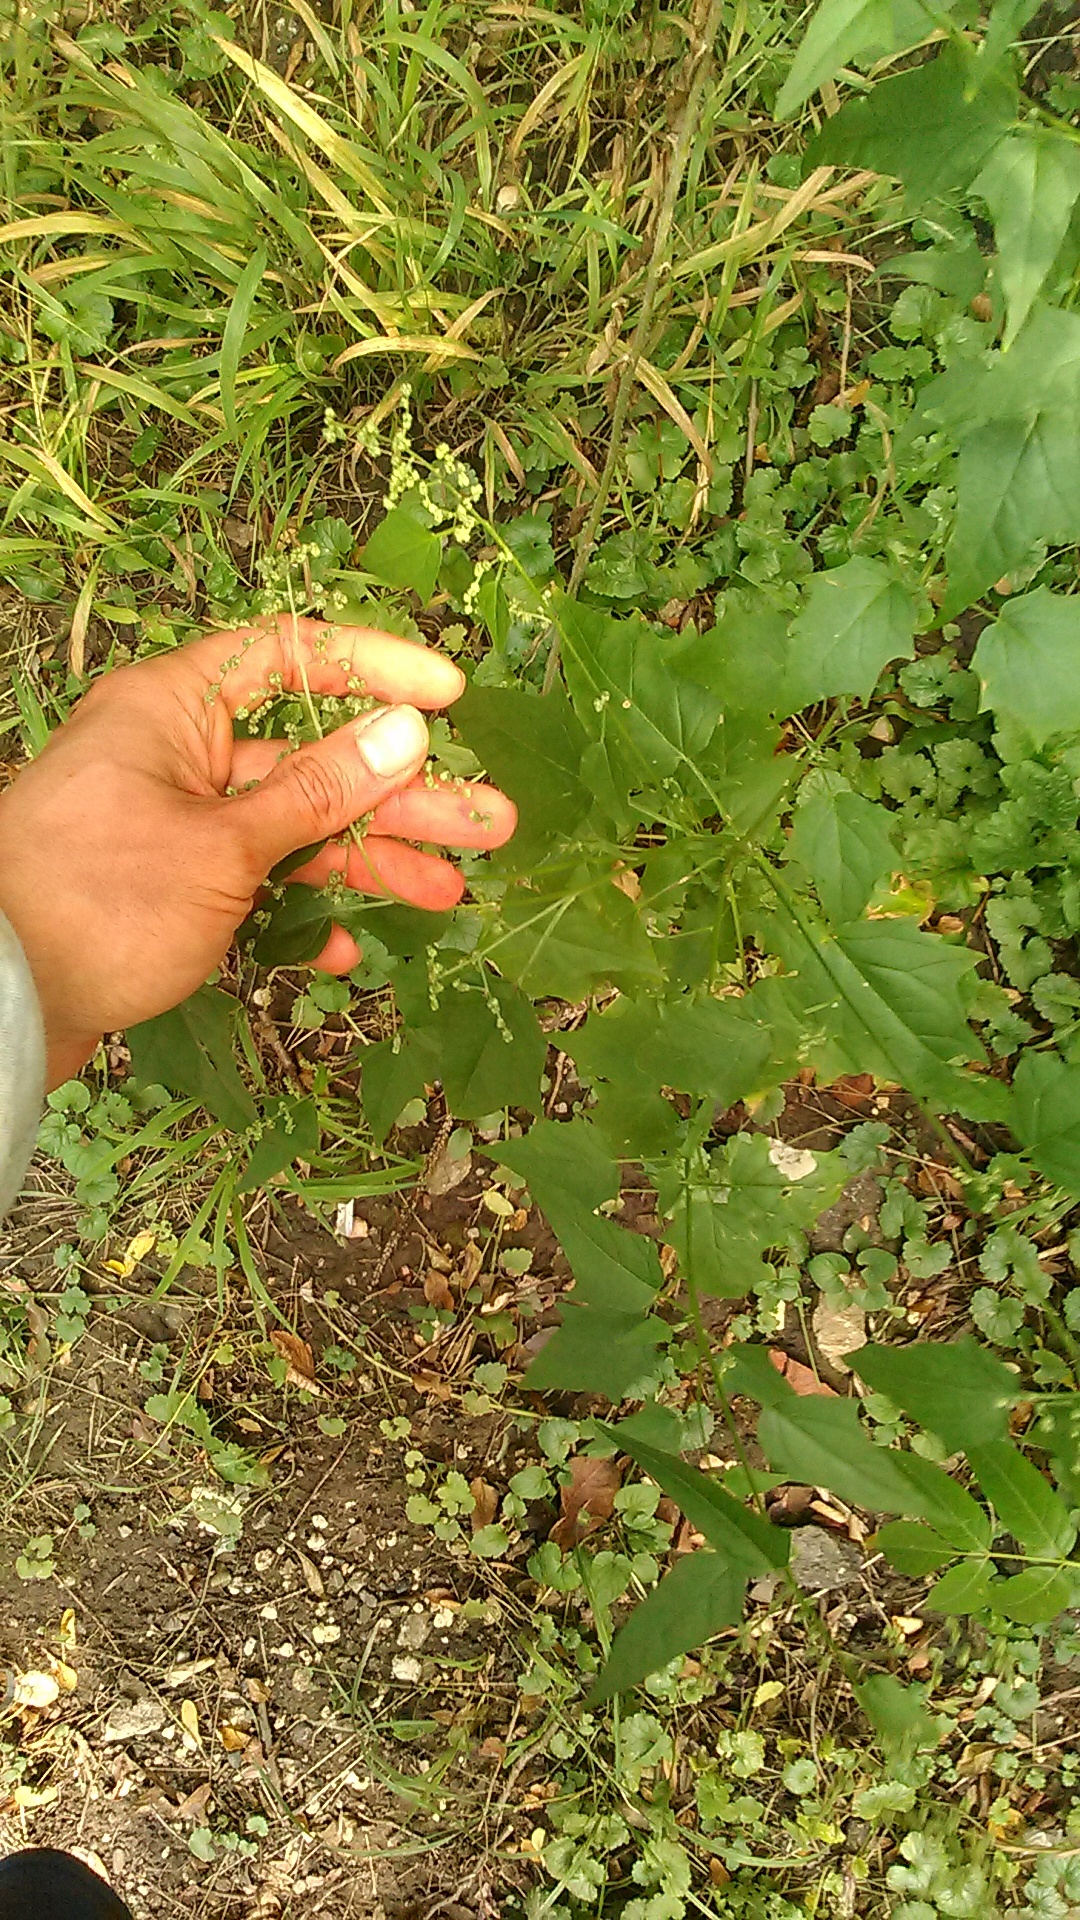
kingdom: Plantae
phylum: Tracheophyta
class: Magnoliopsida
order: Caryophyllales
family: Amaranthaceae
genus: Chenopodiastrum
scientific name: Chenopodiastrum hybridum
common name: Mapleleaf goosefoot
